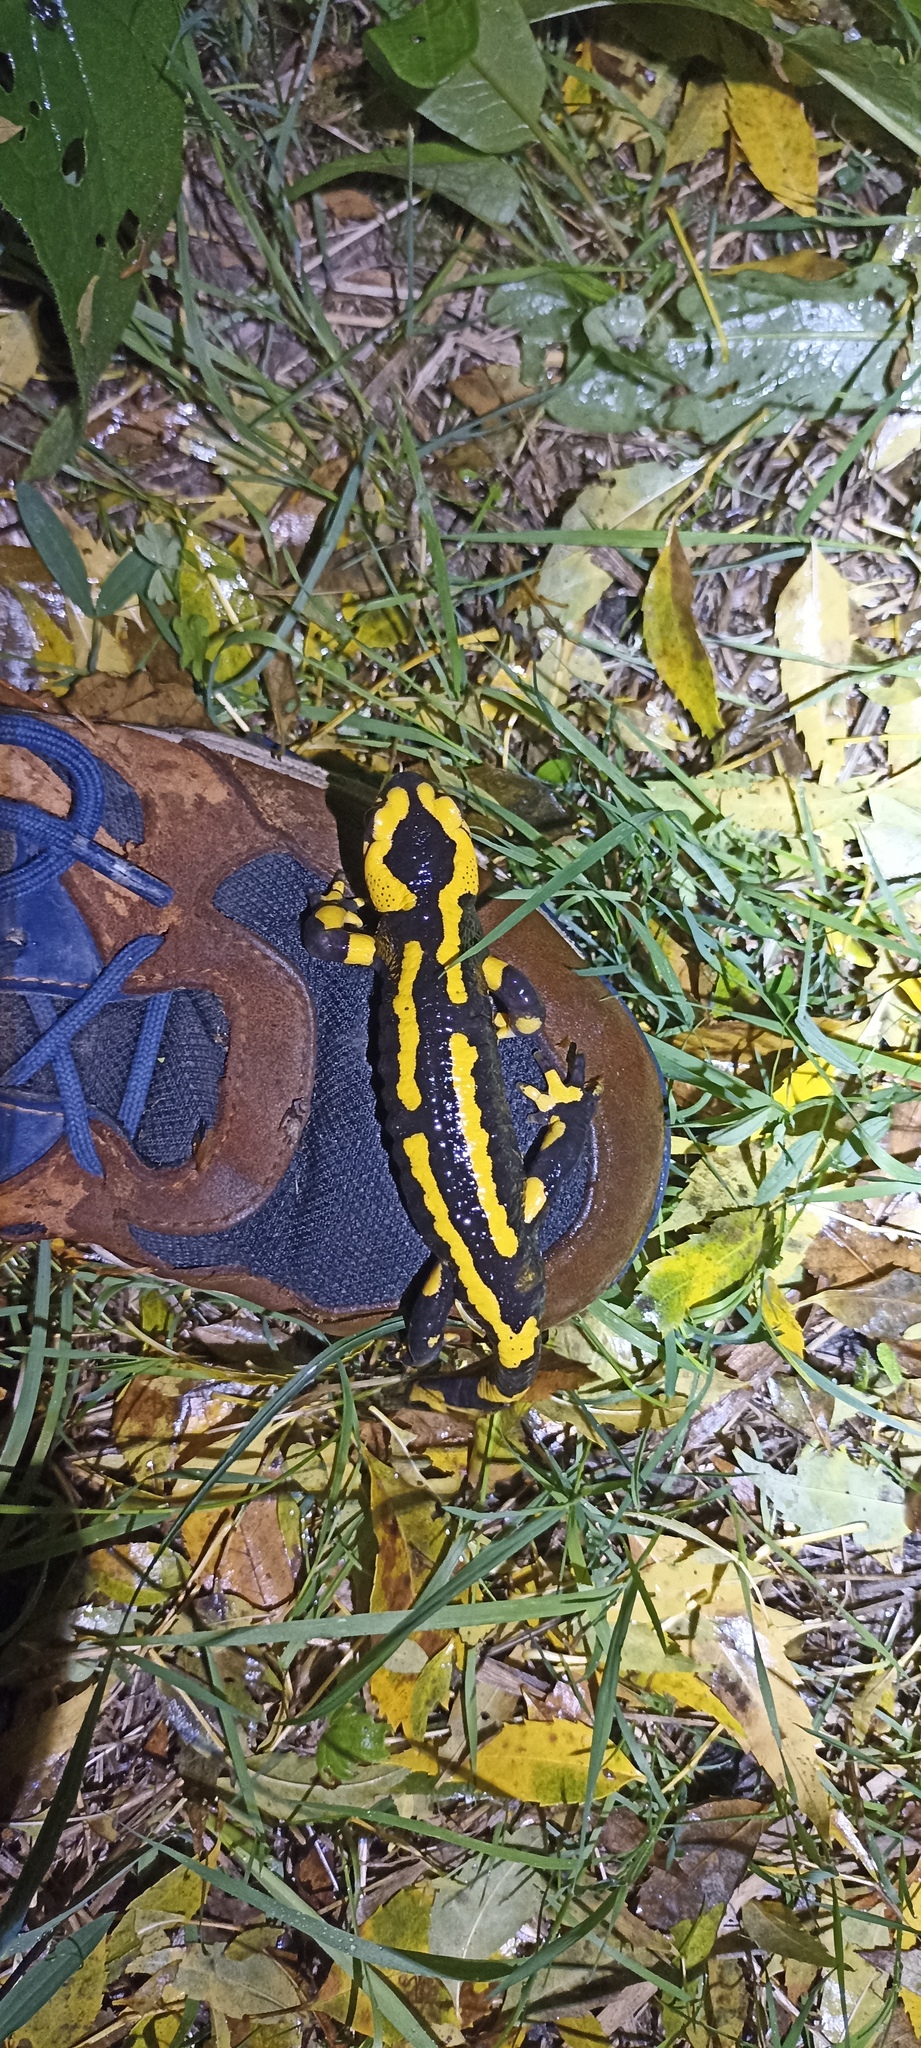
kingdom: Animalia
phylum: Chordata
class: Amphibia
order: Caudata
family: Salamandridae
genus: Salamandra
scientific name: Salamandra salamandra
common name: Fire salamander
